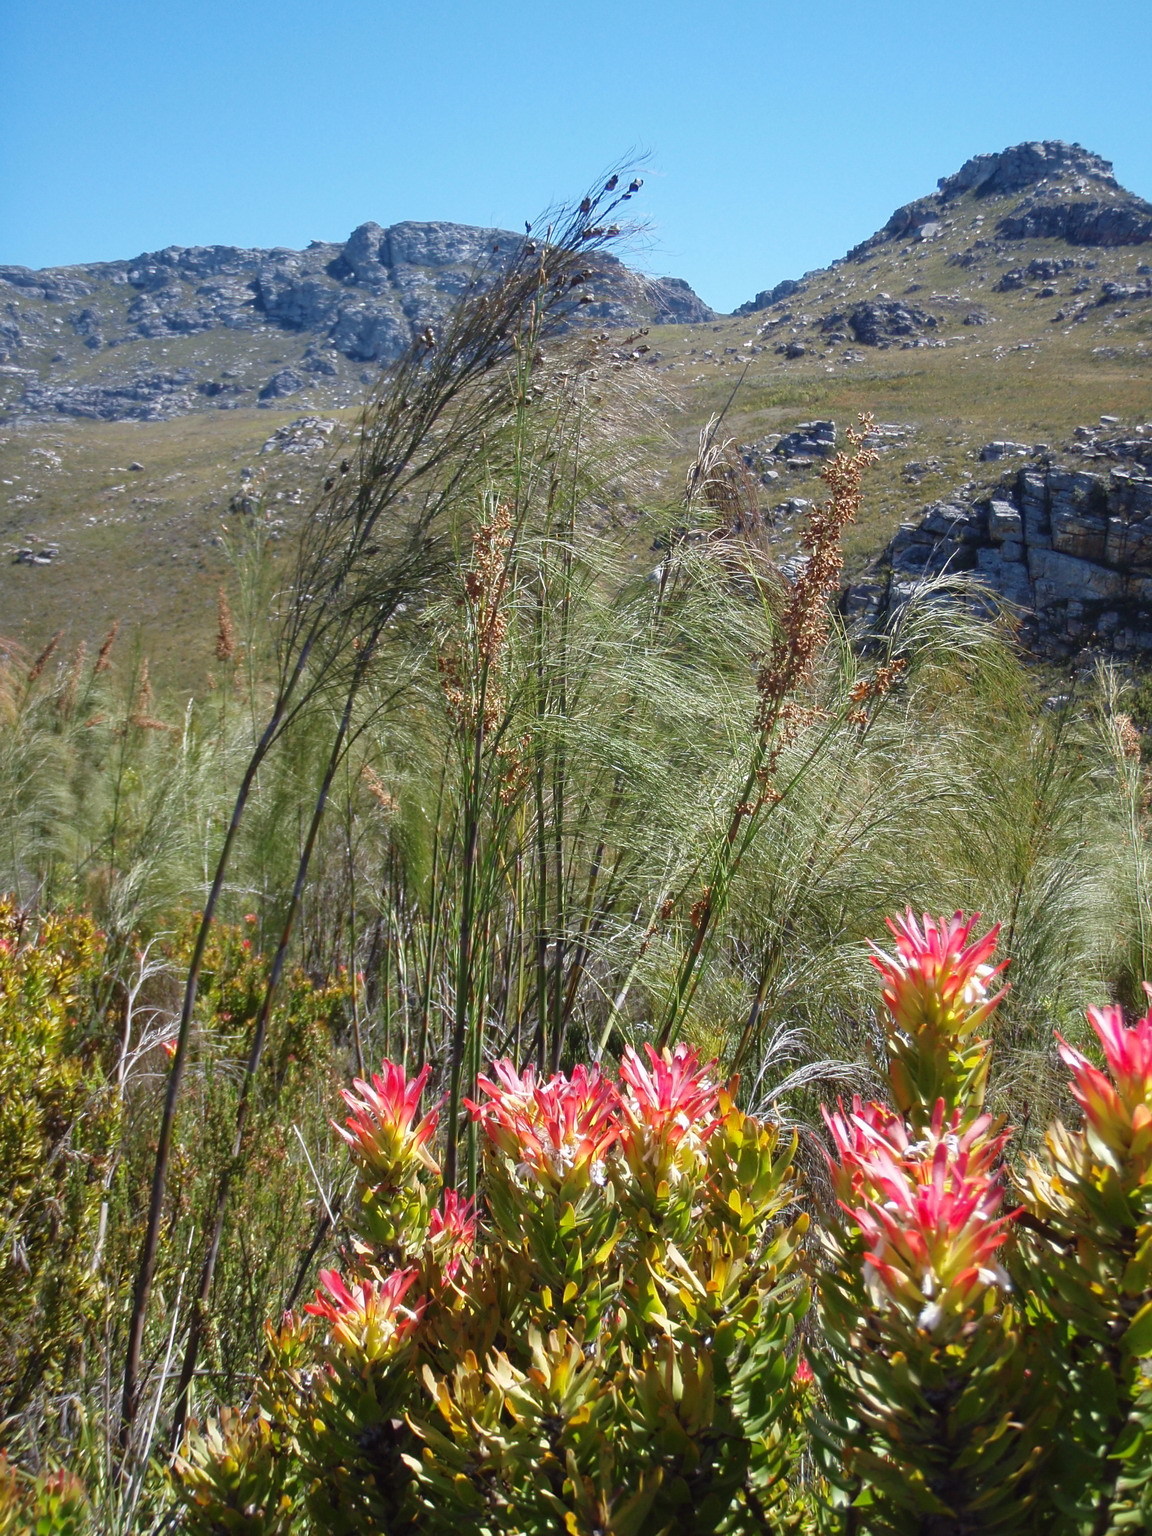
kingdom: Plantae
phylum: Tracheophyta
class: Magnoliopsida
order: Proteales
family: Proteaceae
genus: Mimetes
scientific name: Mimetes cucullatus
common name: Common pagoda
